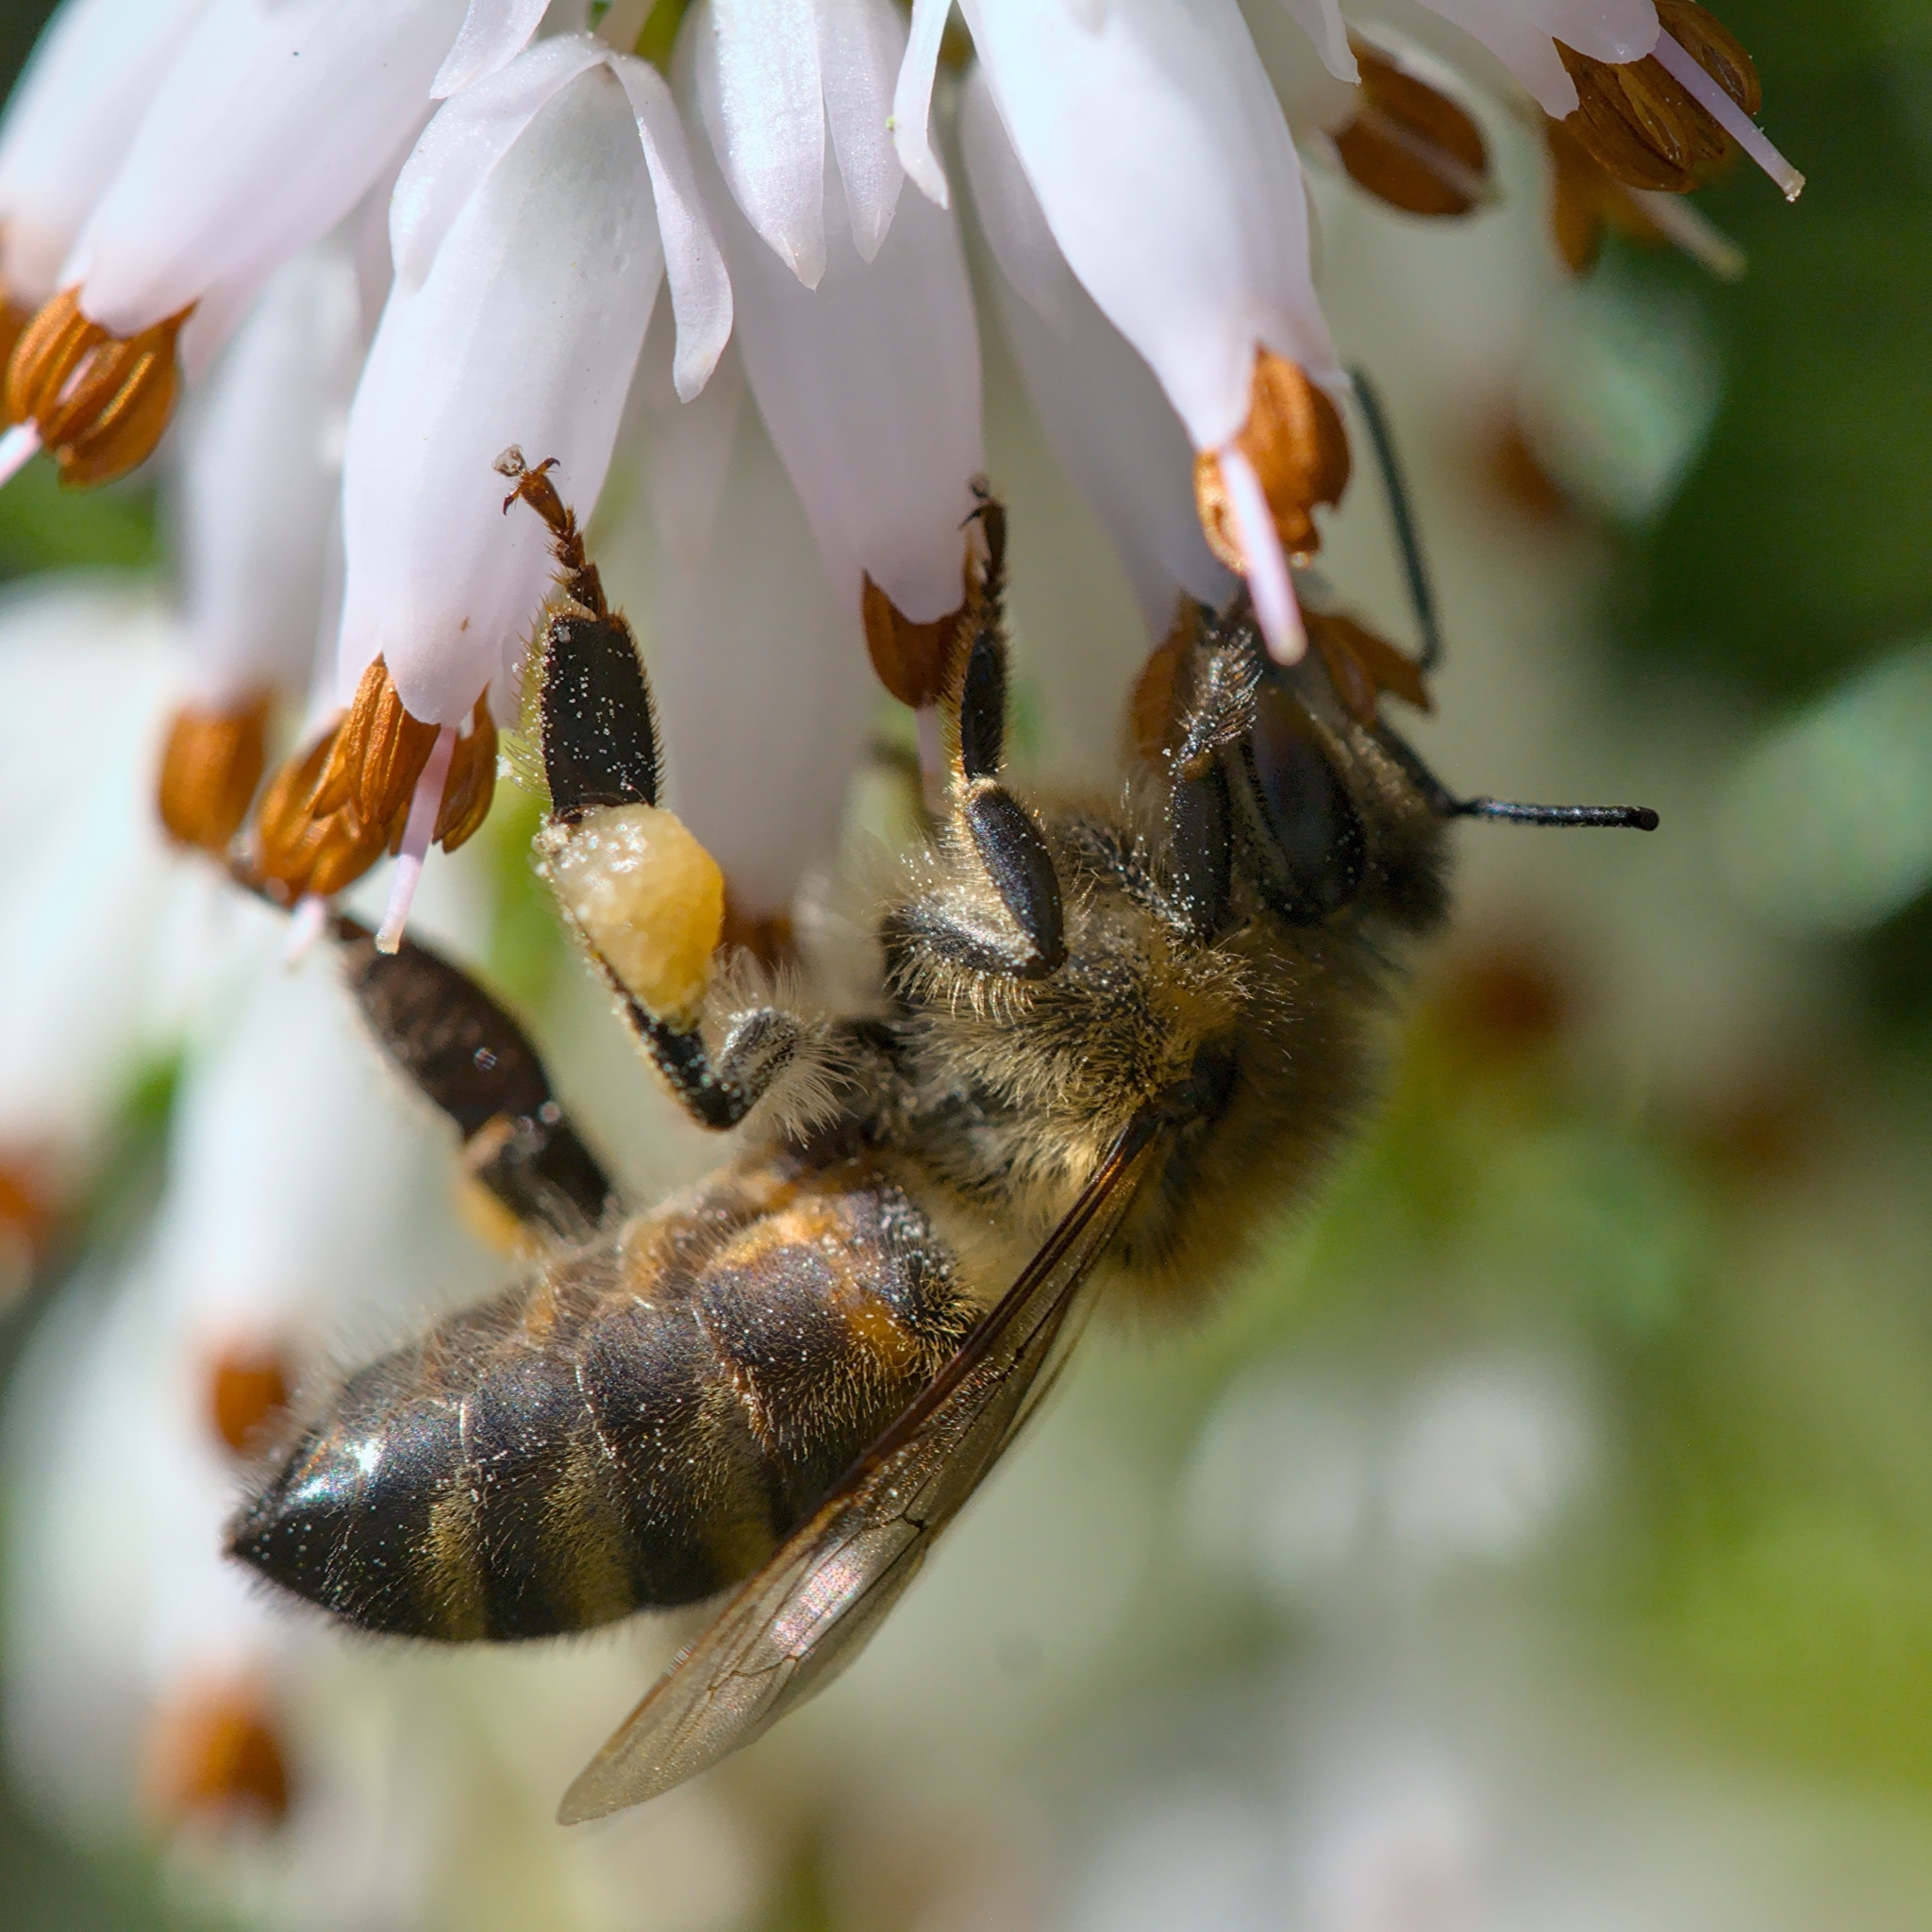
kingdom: Animalia
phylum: Arthropoda
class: Insecta
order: Hymenoptera
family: Apidae
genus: Apis
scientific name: Apis mellifera
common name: Honey bee
